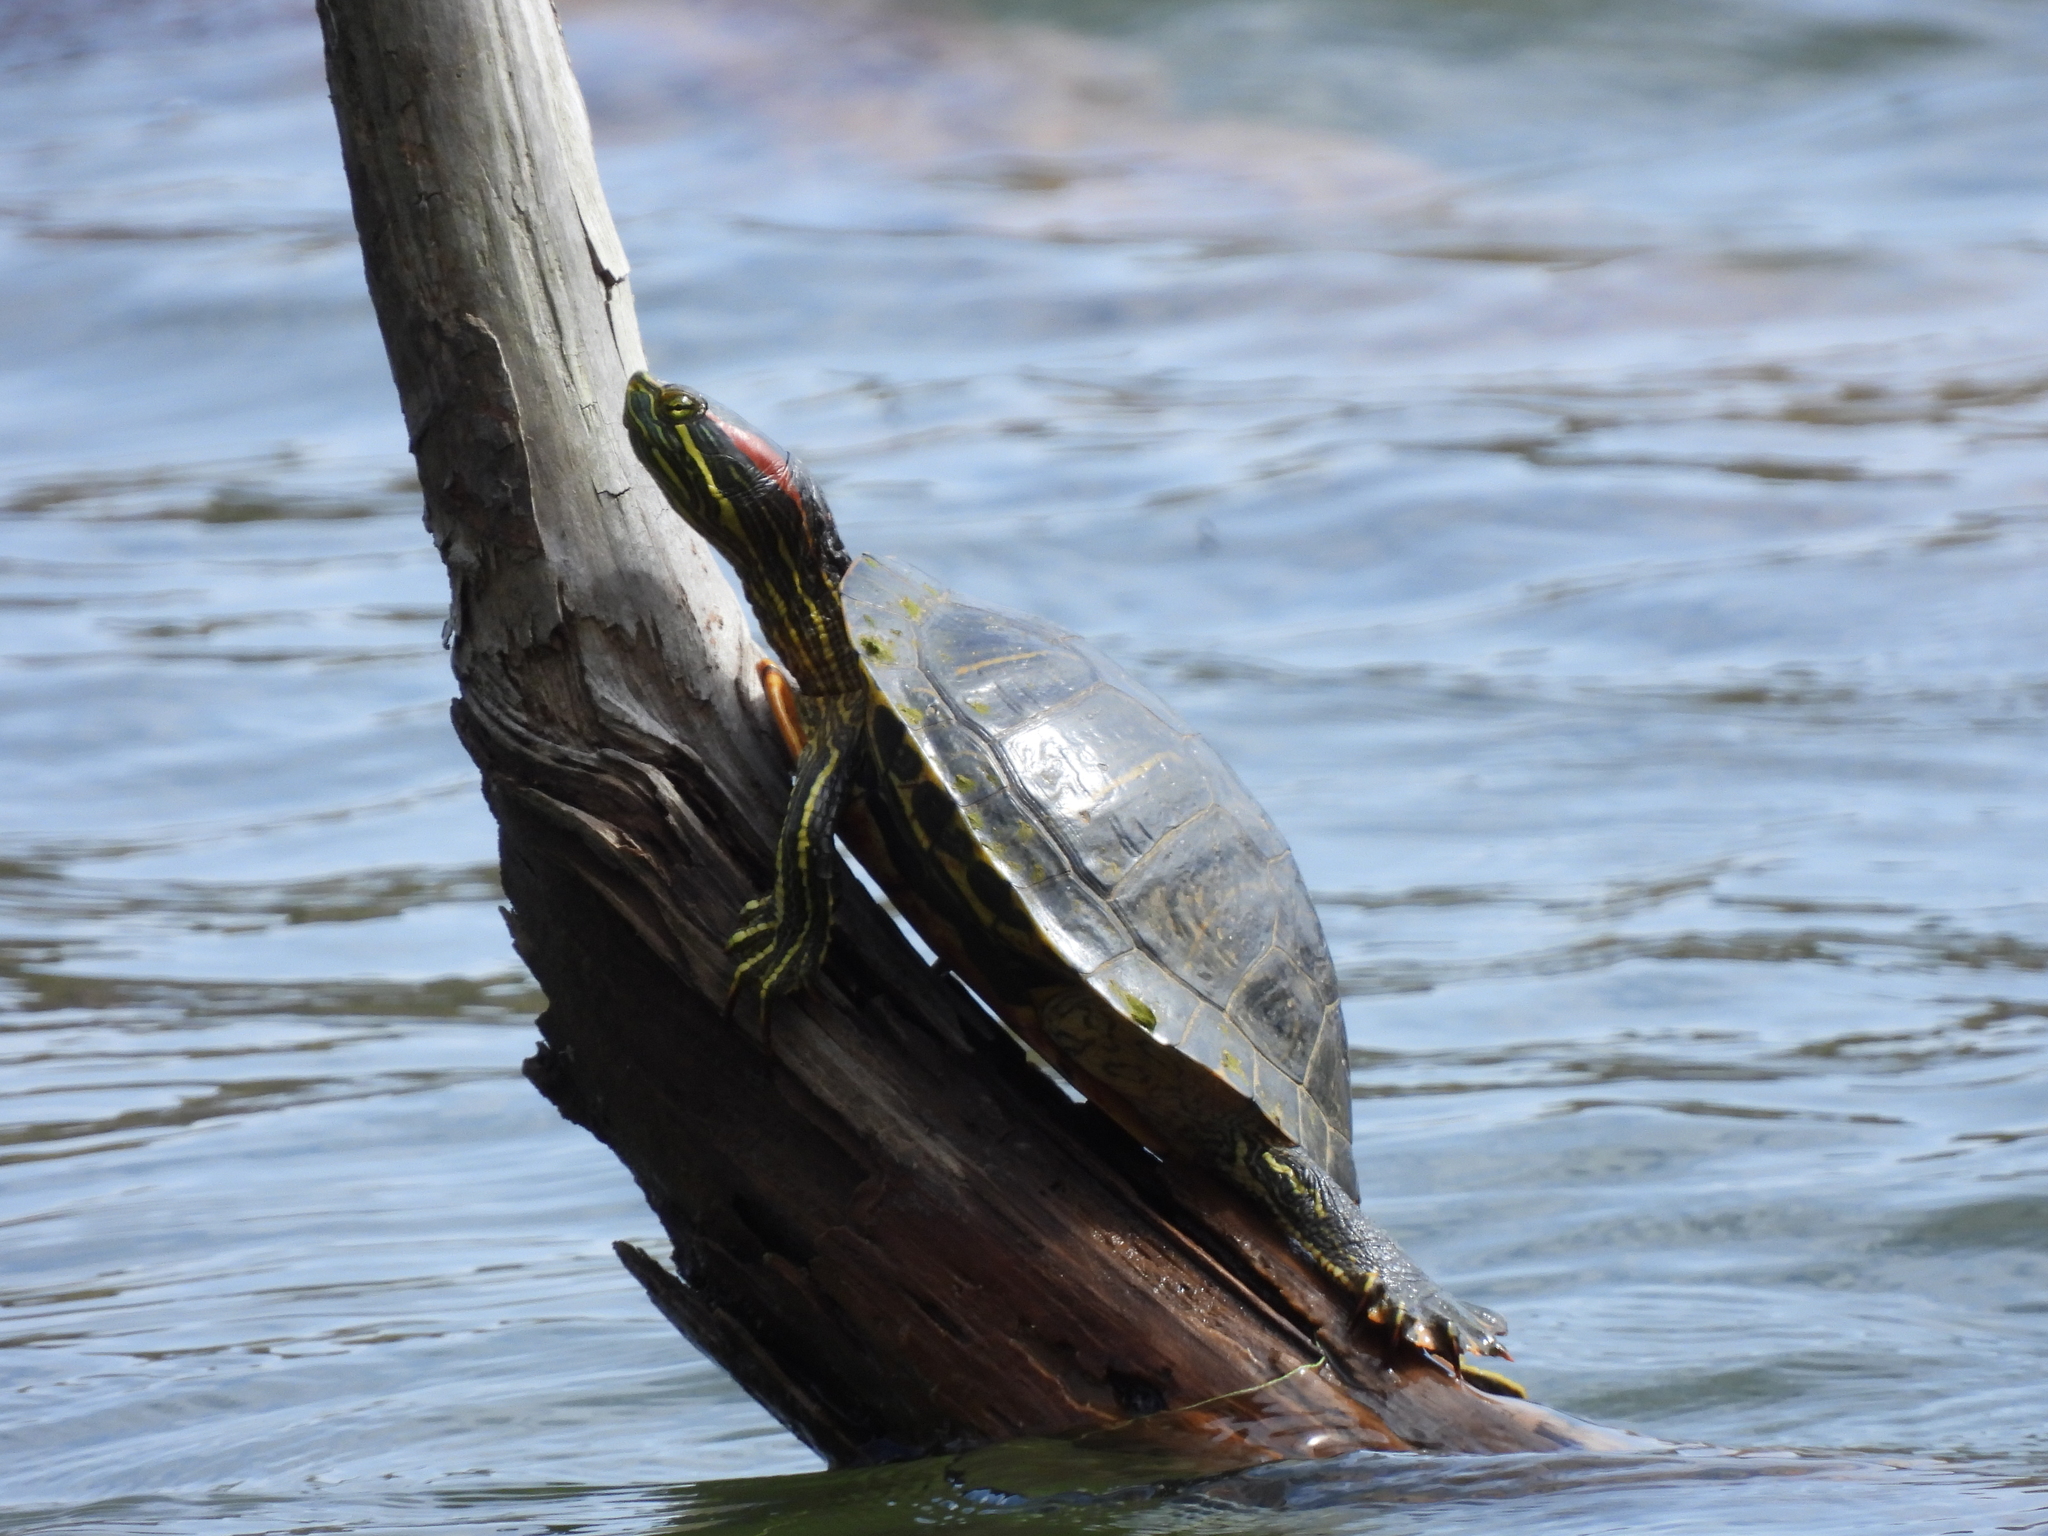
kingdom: Animalia
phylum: Chordata
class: Testudines
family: Emydidae
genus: Trachemys
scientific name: Trachemys scripta
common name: Slider
